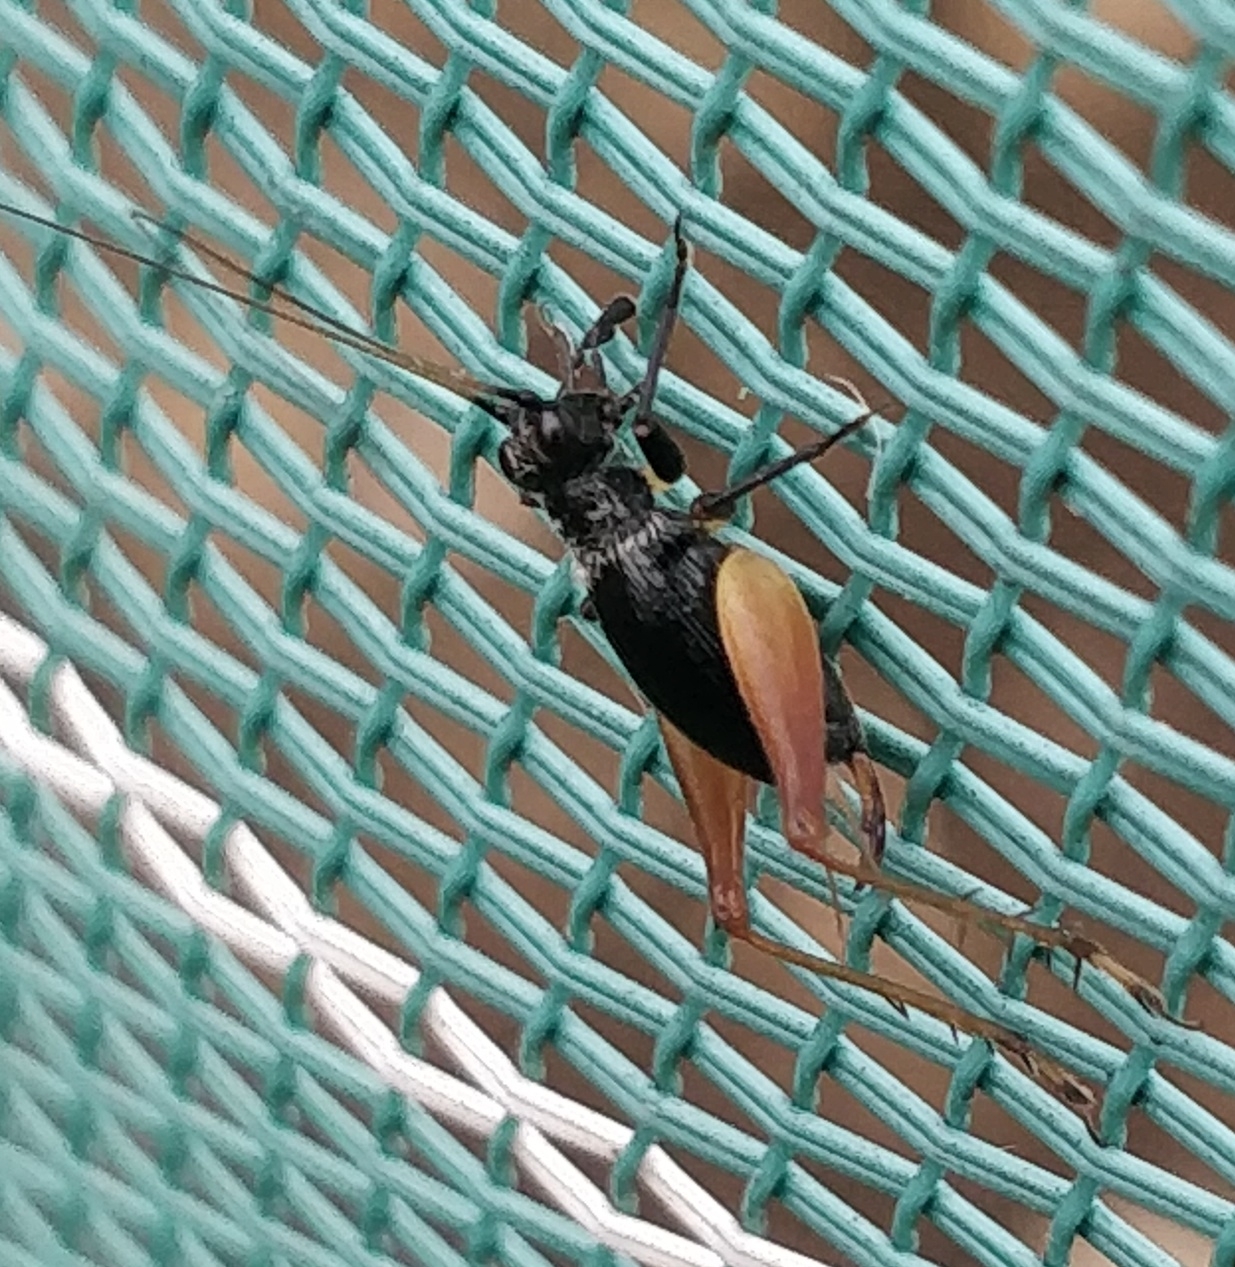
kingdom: Animalia
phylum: Arthropoda
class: Insecta
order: Orthoptera
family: Trigonidiidae
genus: Trigonidium
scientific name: Trigonidium cicindeloides
